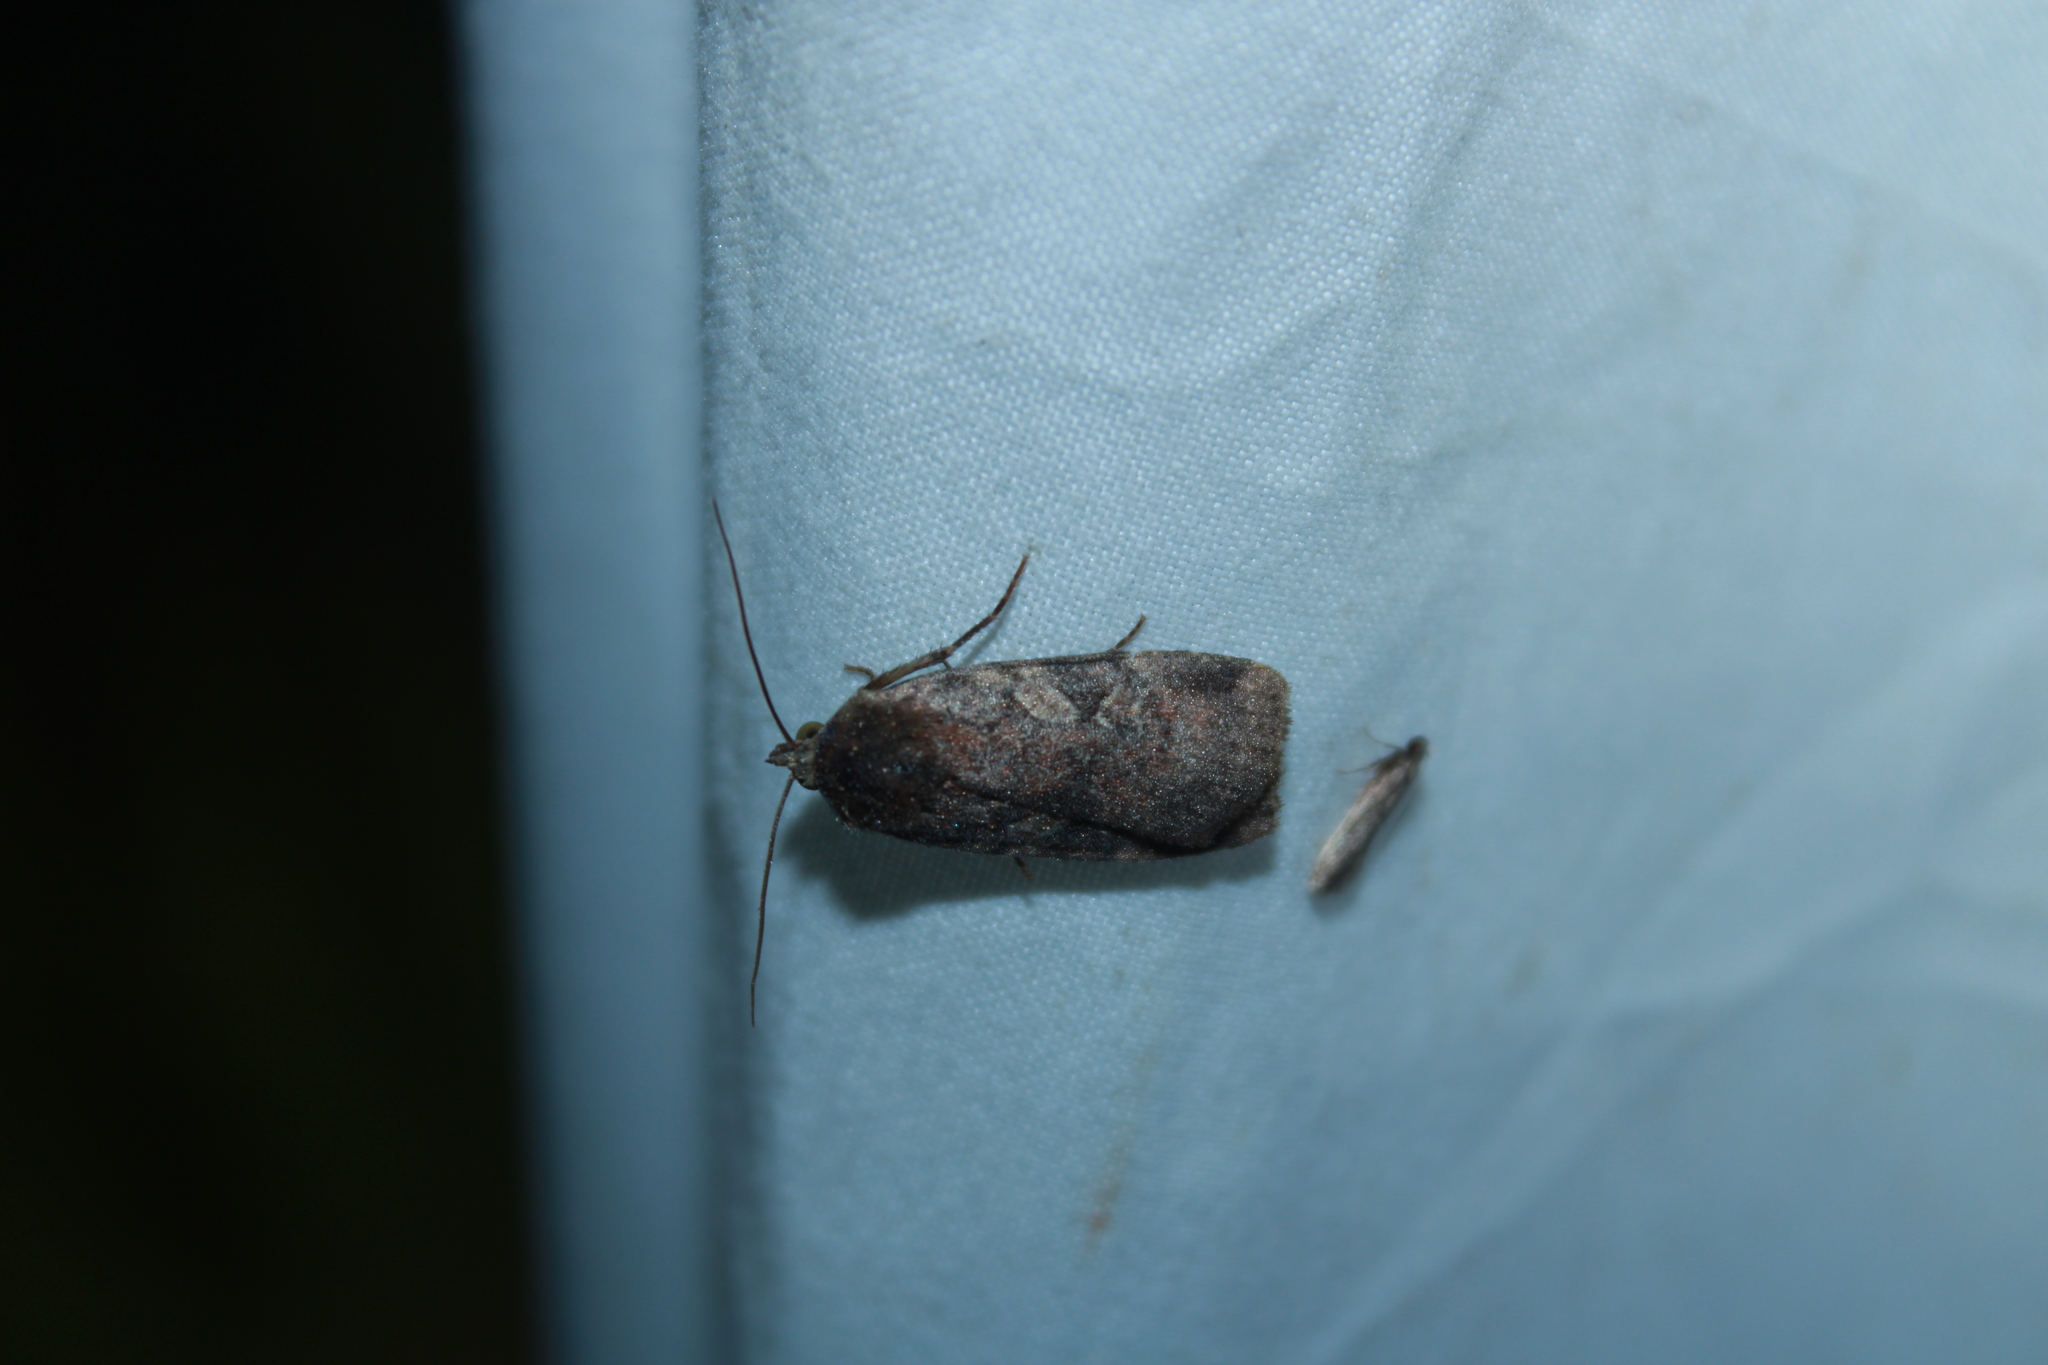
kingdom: Animalia
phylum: Arthropoda
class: Insecta
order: Lepidoptera
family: Noctuidae
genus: Cryptocala
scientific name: Cryptocala acadiensis
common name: Catocaline dart
